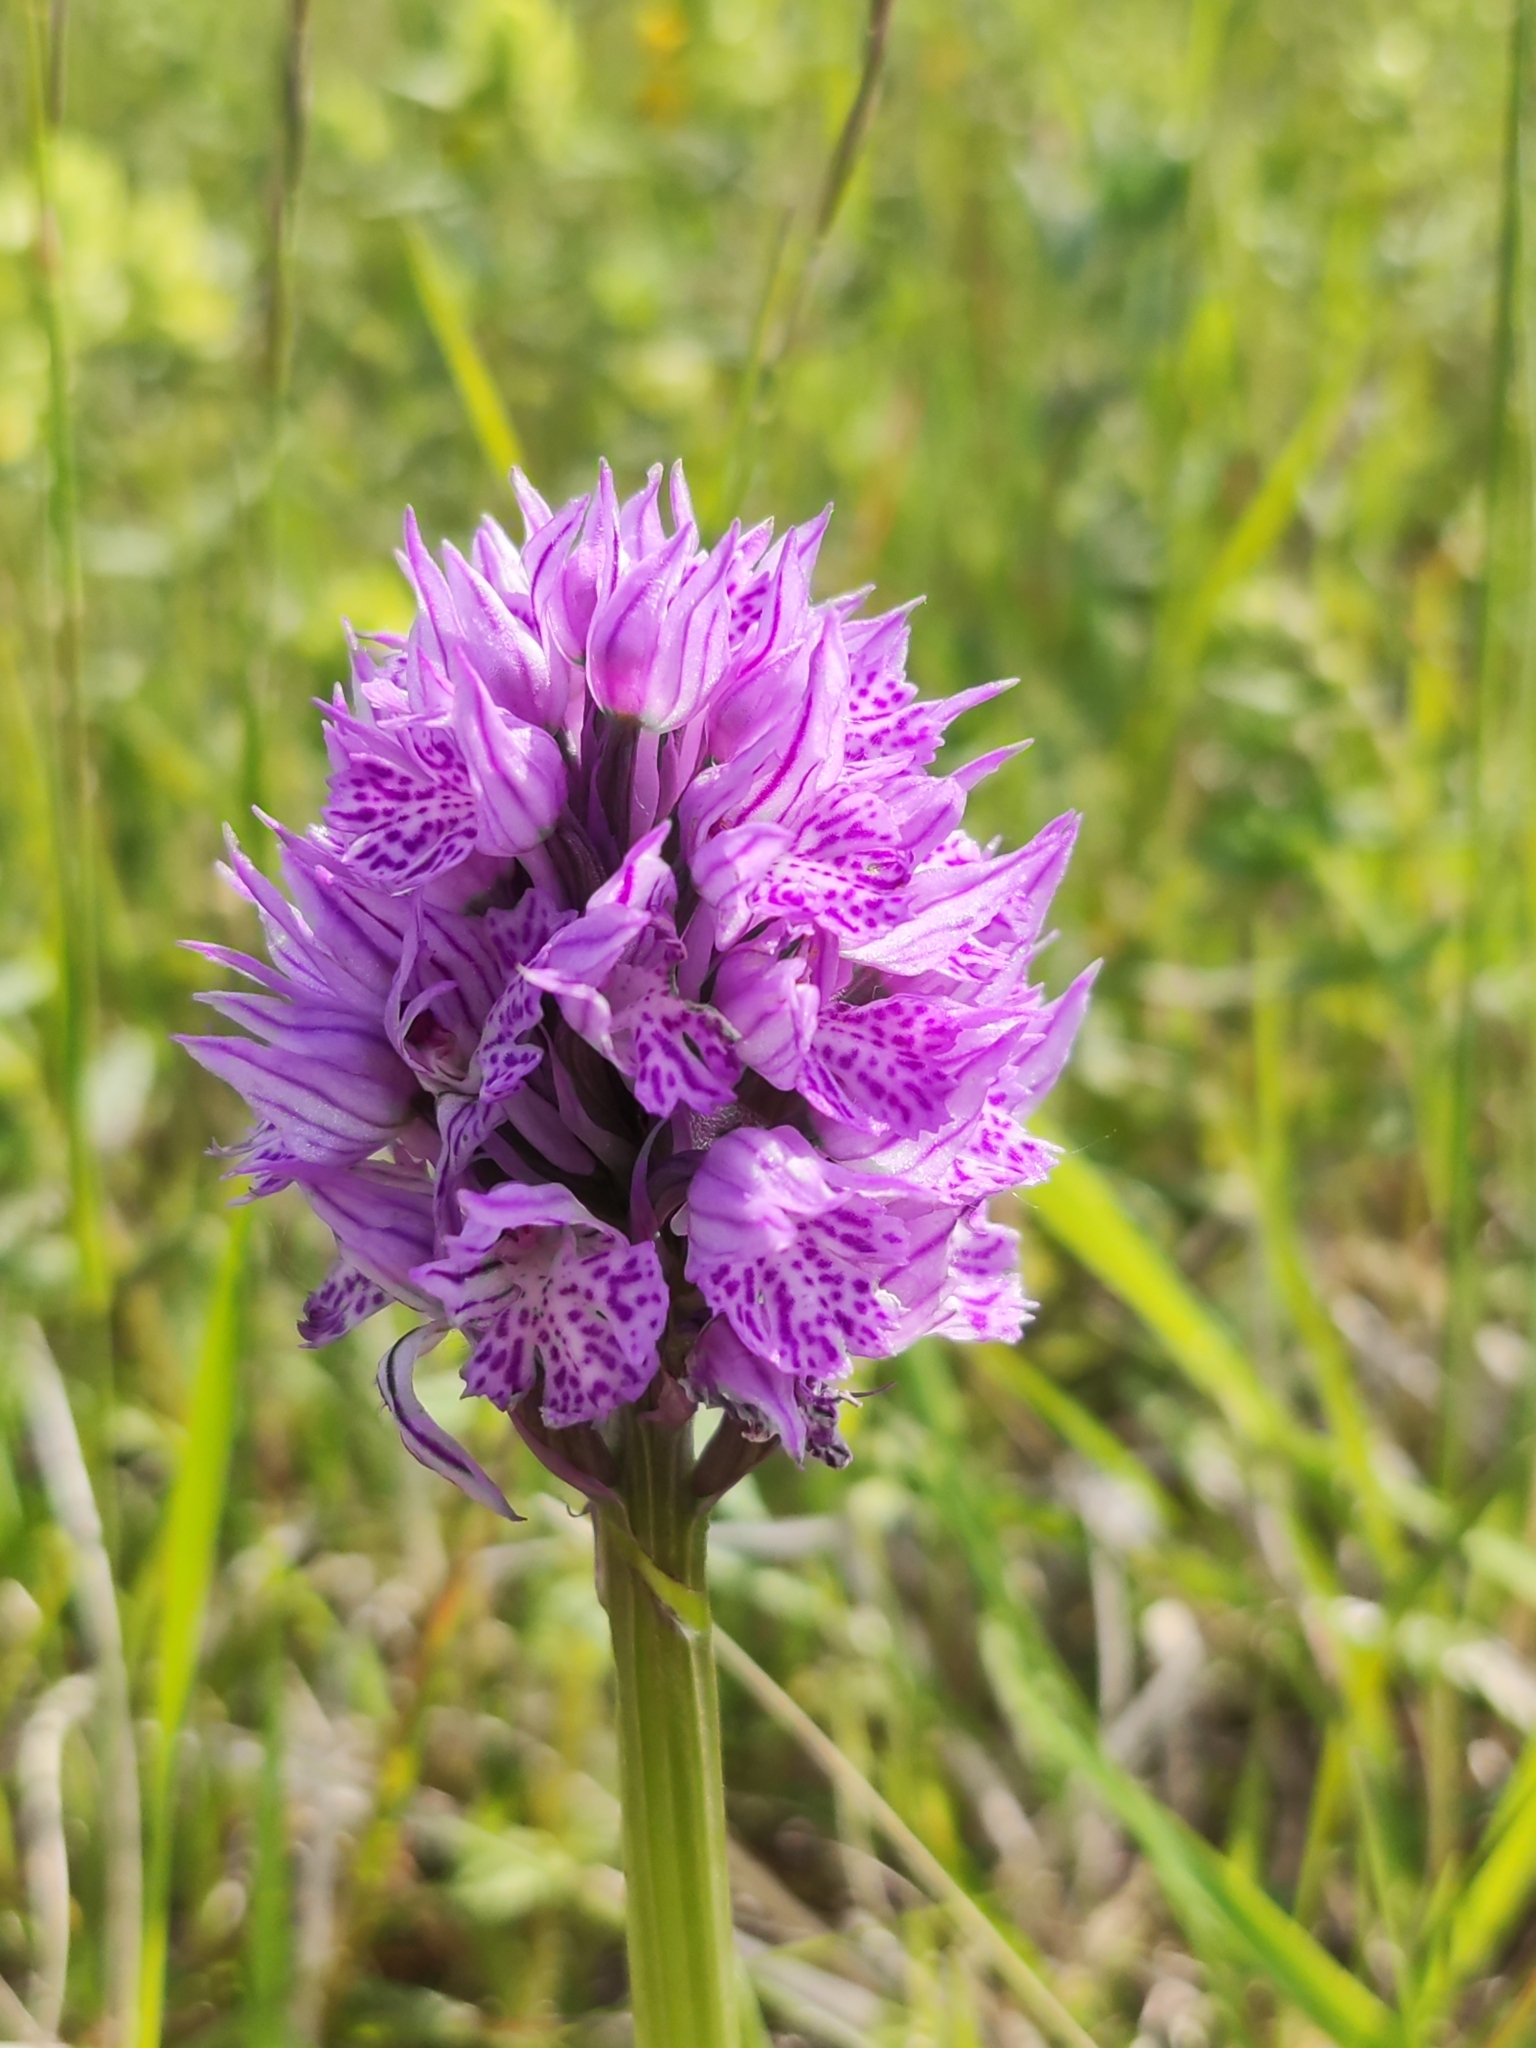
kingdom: Plantae
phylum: Tracheophyta
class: Liliopsida
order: Asparagales
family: Orchidaceae
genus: Neotinea
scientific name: Neotinea tridentata
